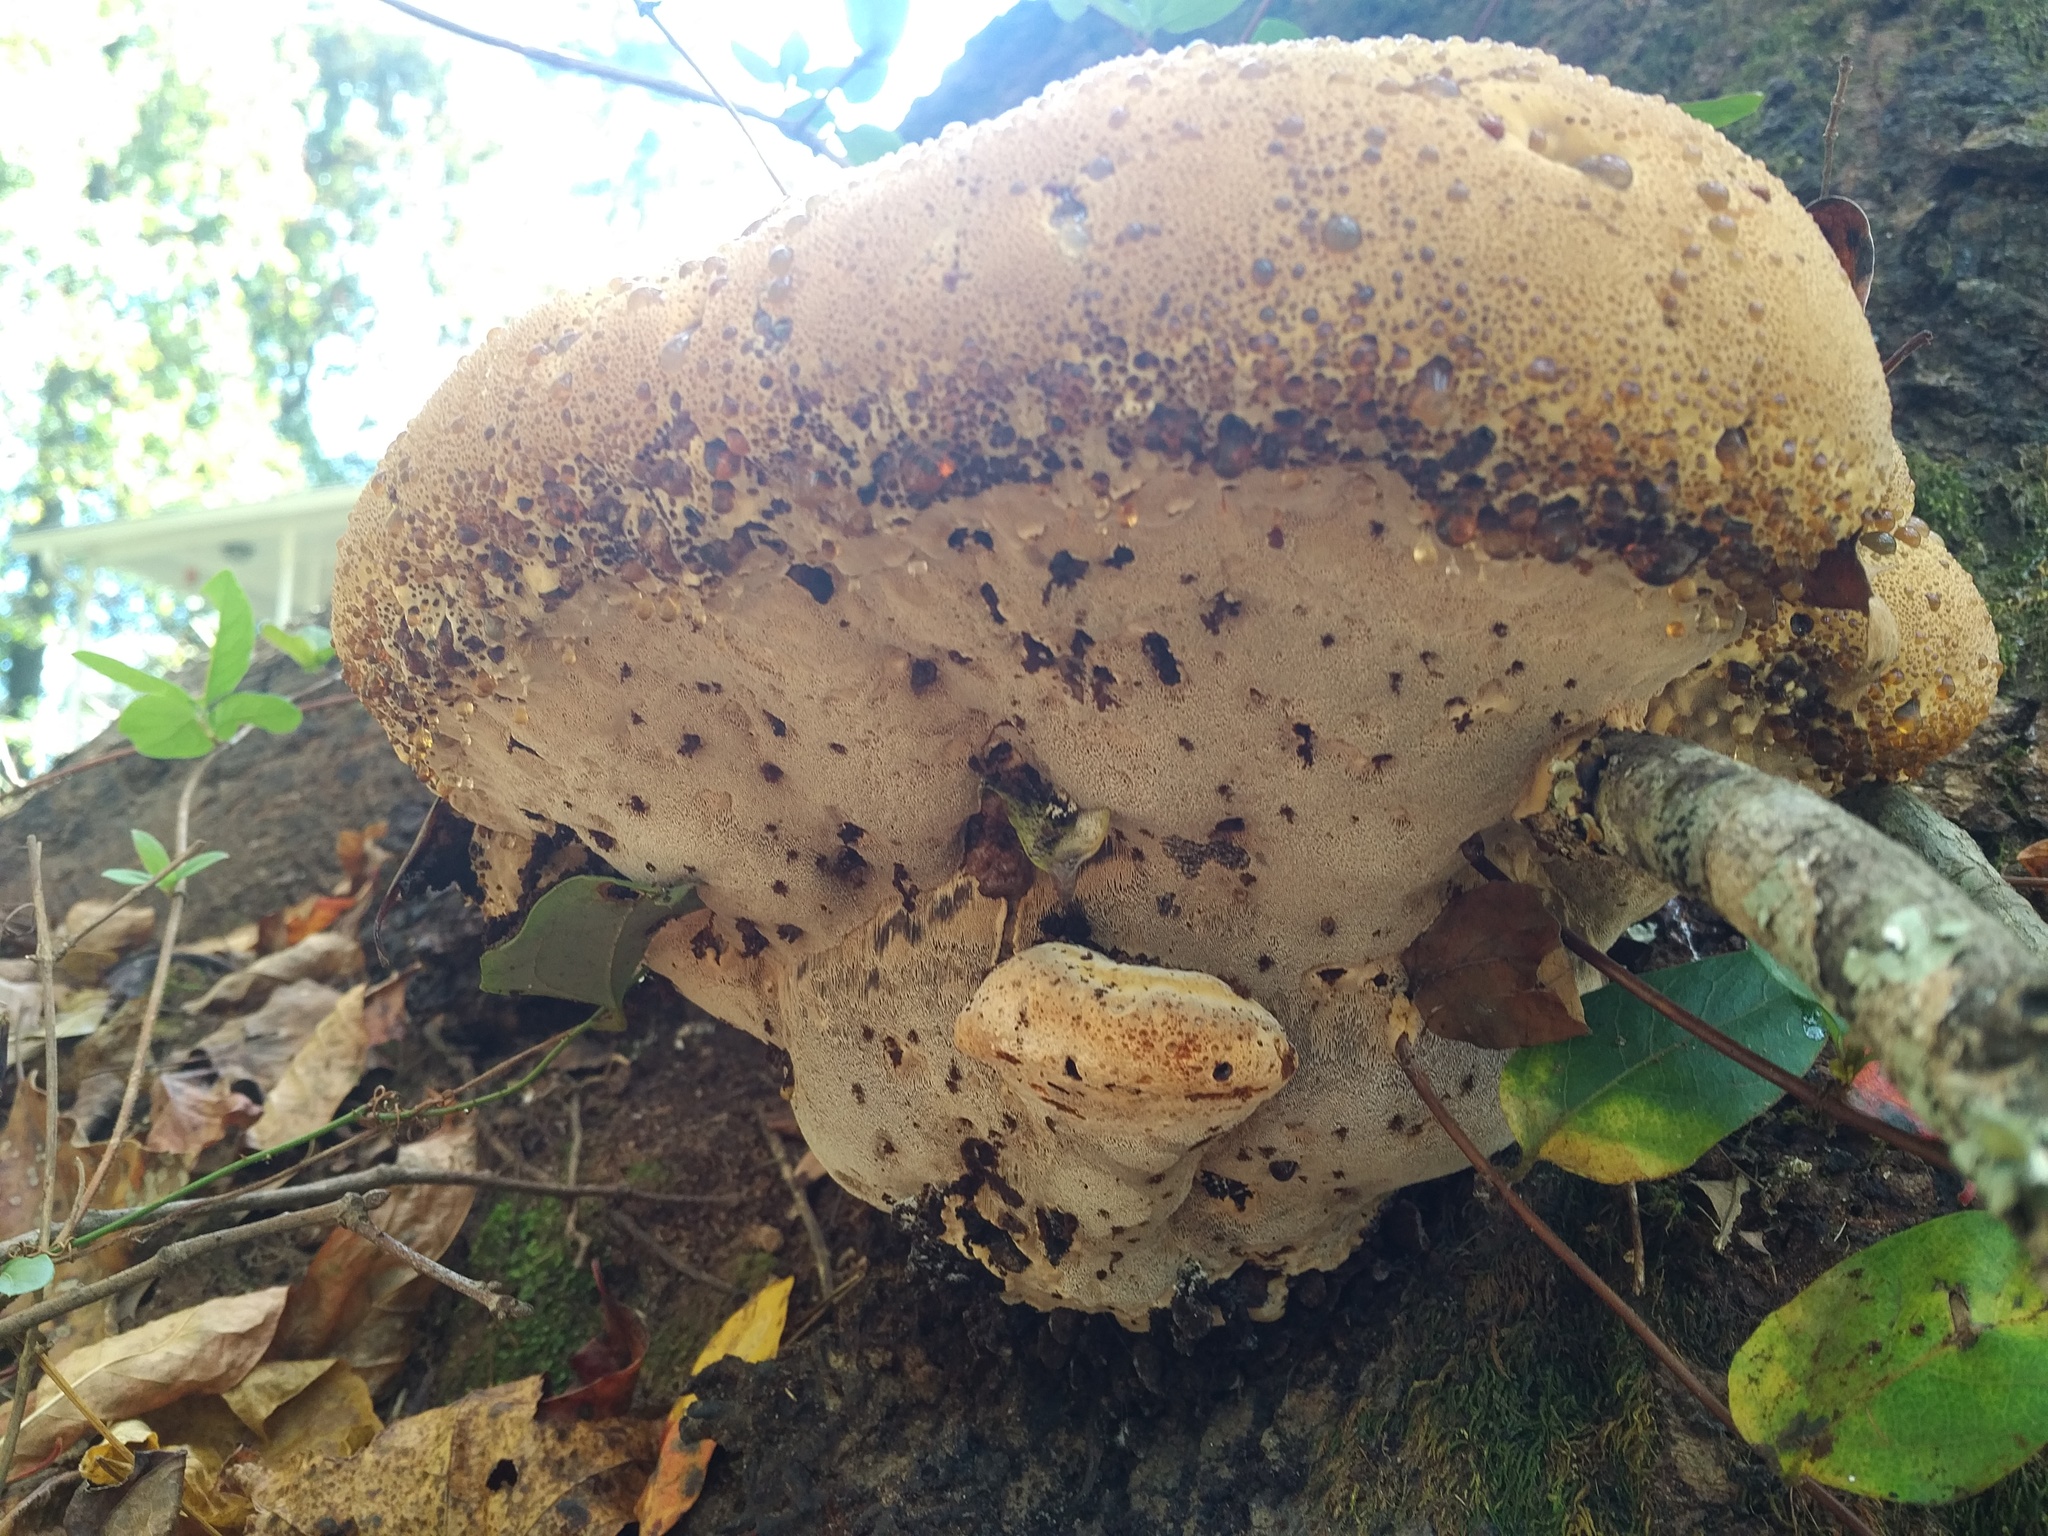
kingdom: Fungi
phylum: Basidiomycota
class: Agaricomycetes
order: Hymenochaetales
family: Hymenochaetaceae
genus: Pseudoinonotus
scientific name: Pseudoinonotus dryadeus
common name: Oak bracket
